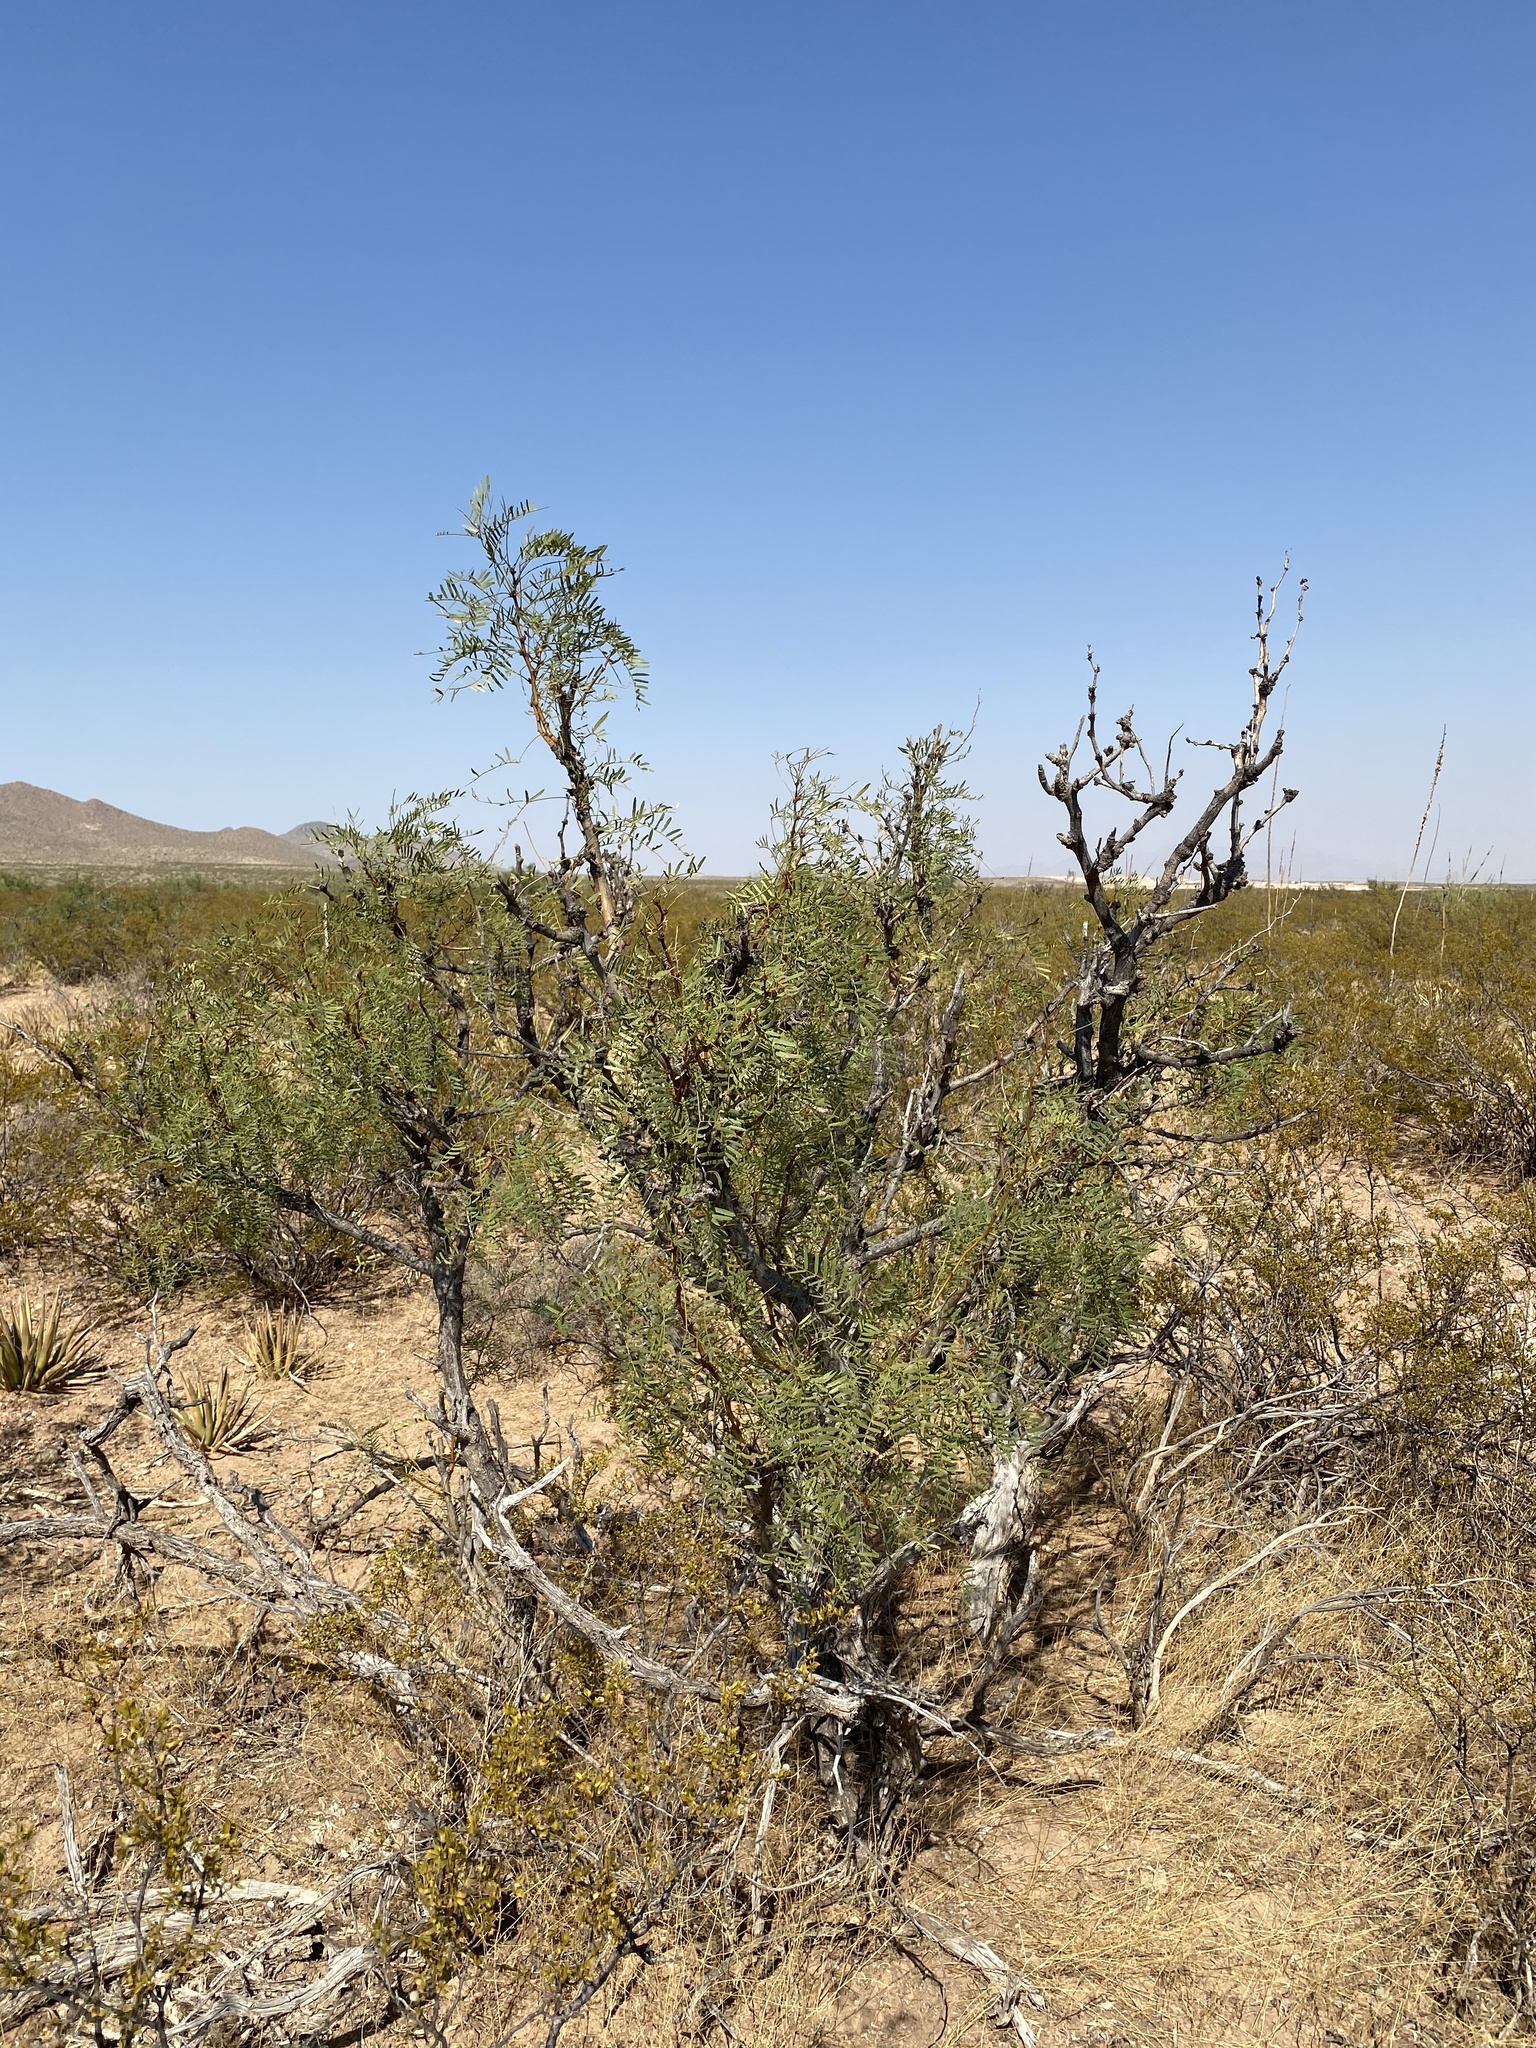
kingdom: Plantae
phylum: Tracheophyta
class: Magnoliopsida
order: Fabales
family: Fabaceae
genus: Prosopis
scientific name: Prosopis glandulosa
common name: Honey mesquite
